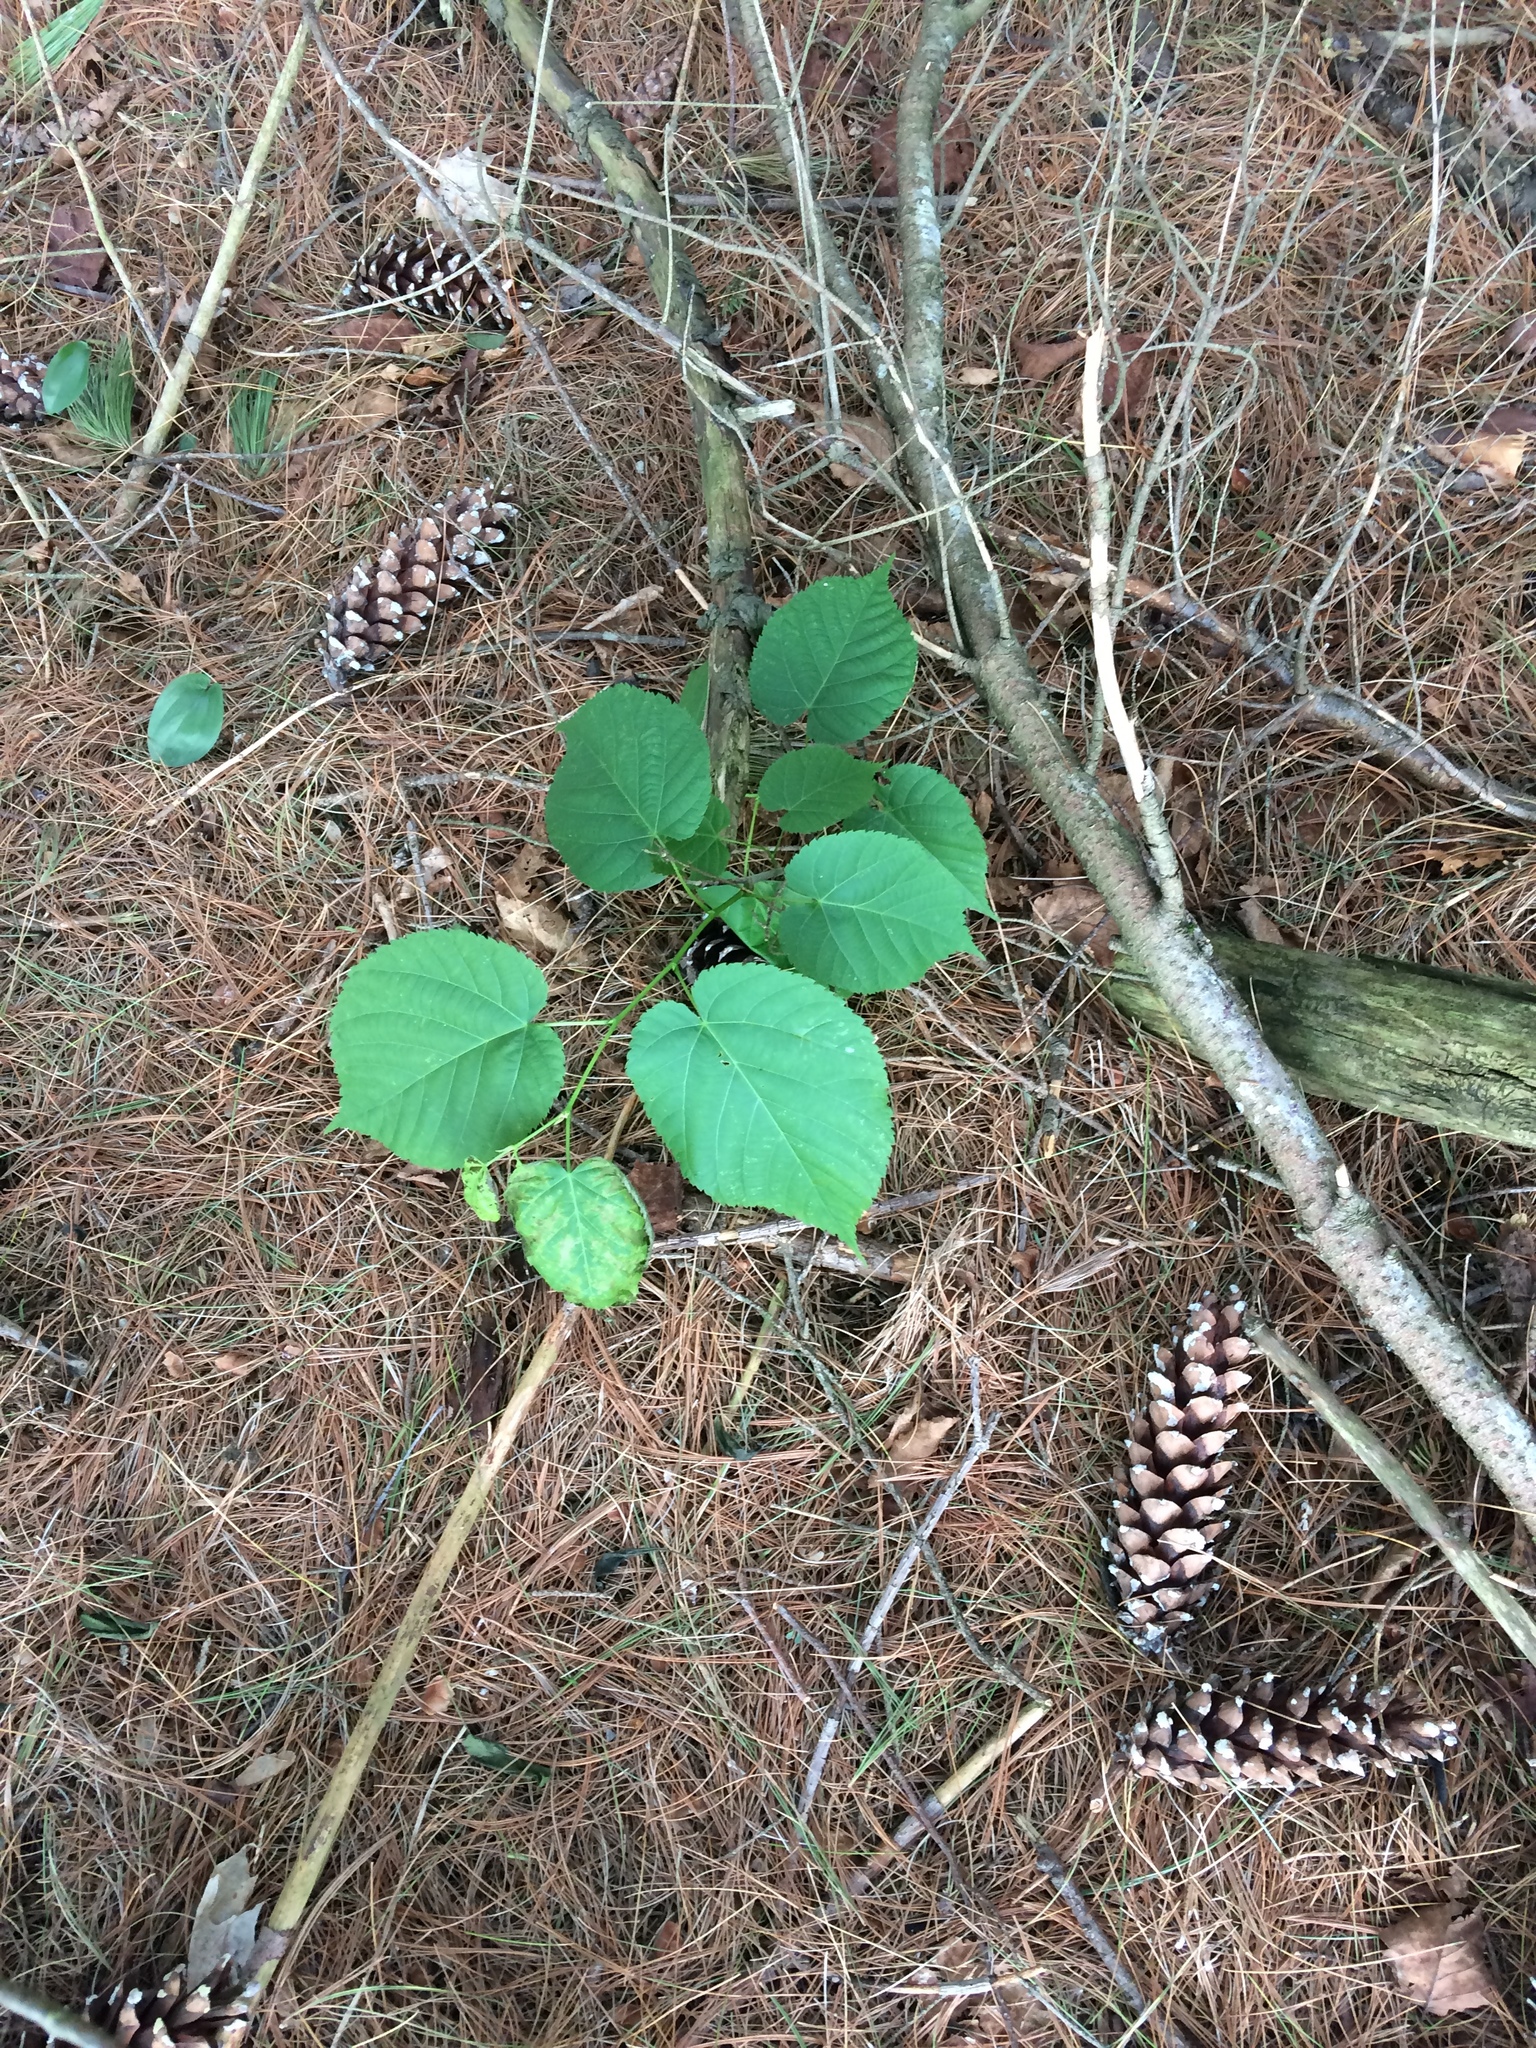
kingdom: Plantae
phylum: Tracheophyta
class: Magnoliopsida
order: Malvales
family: Malvaceae
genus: Tilia
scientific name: Tilia americana
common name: Basswood
